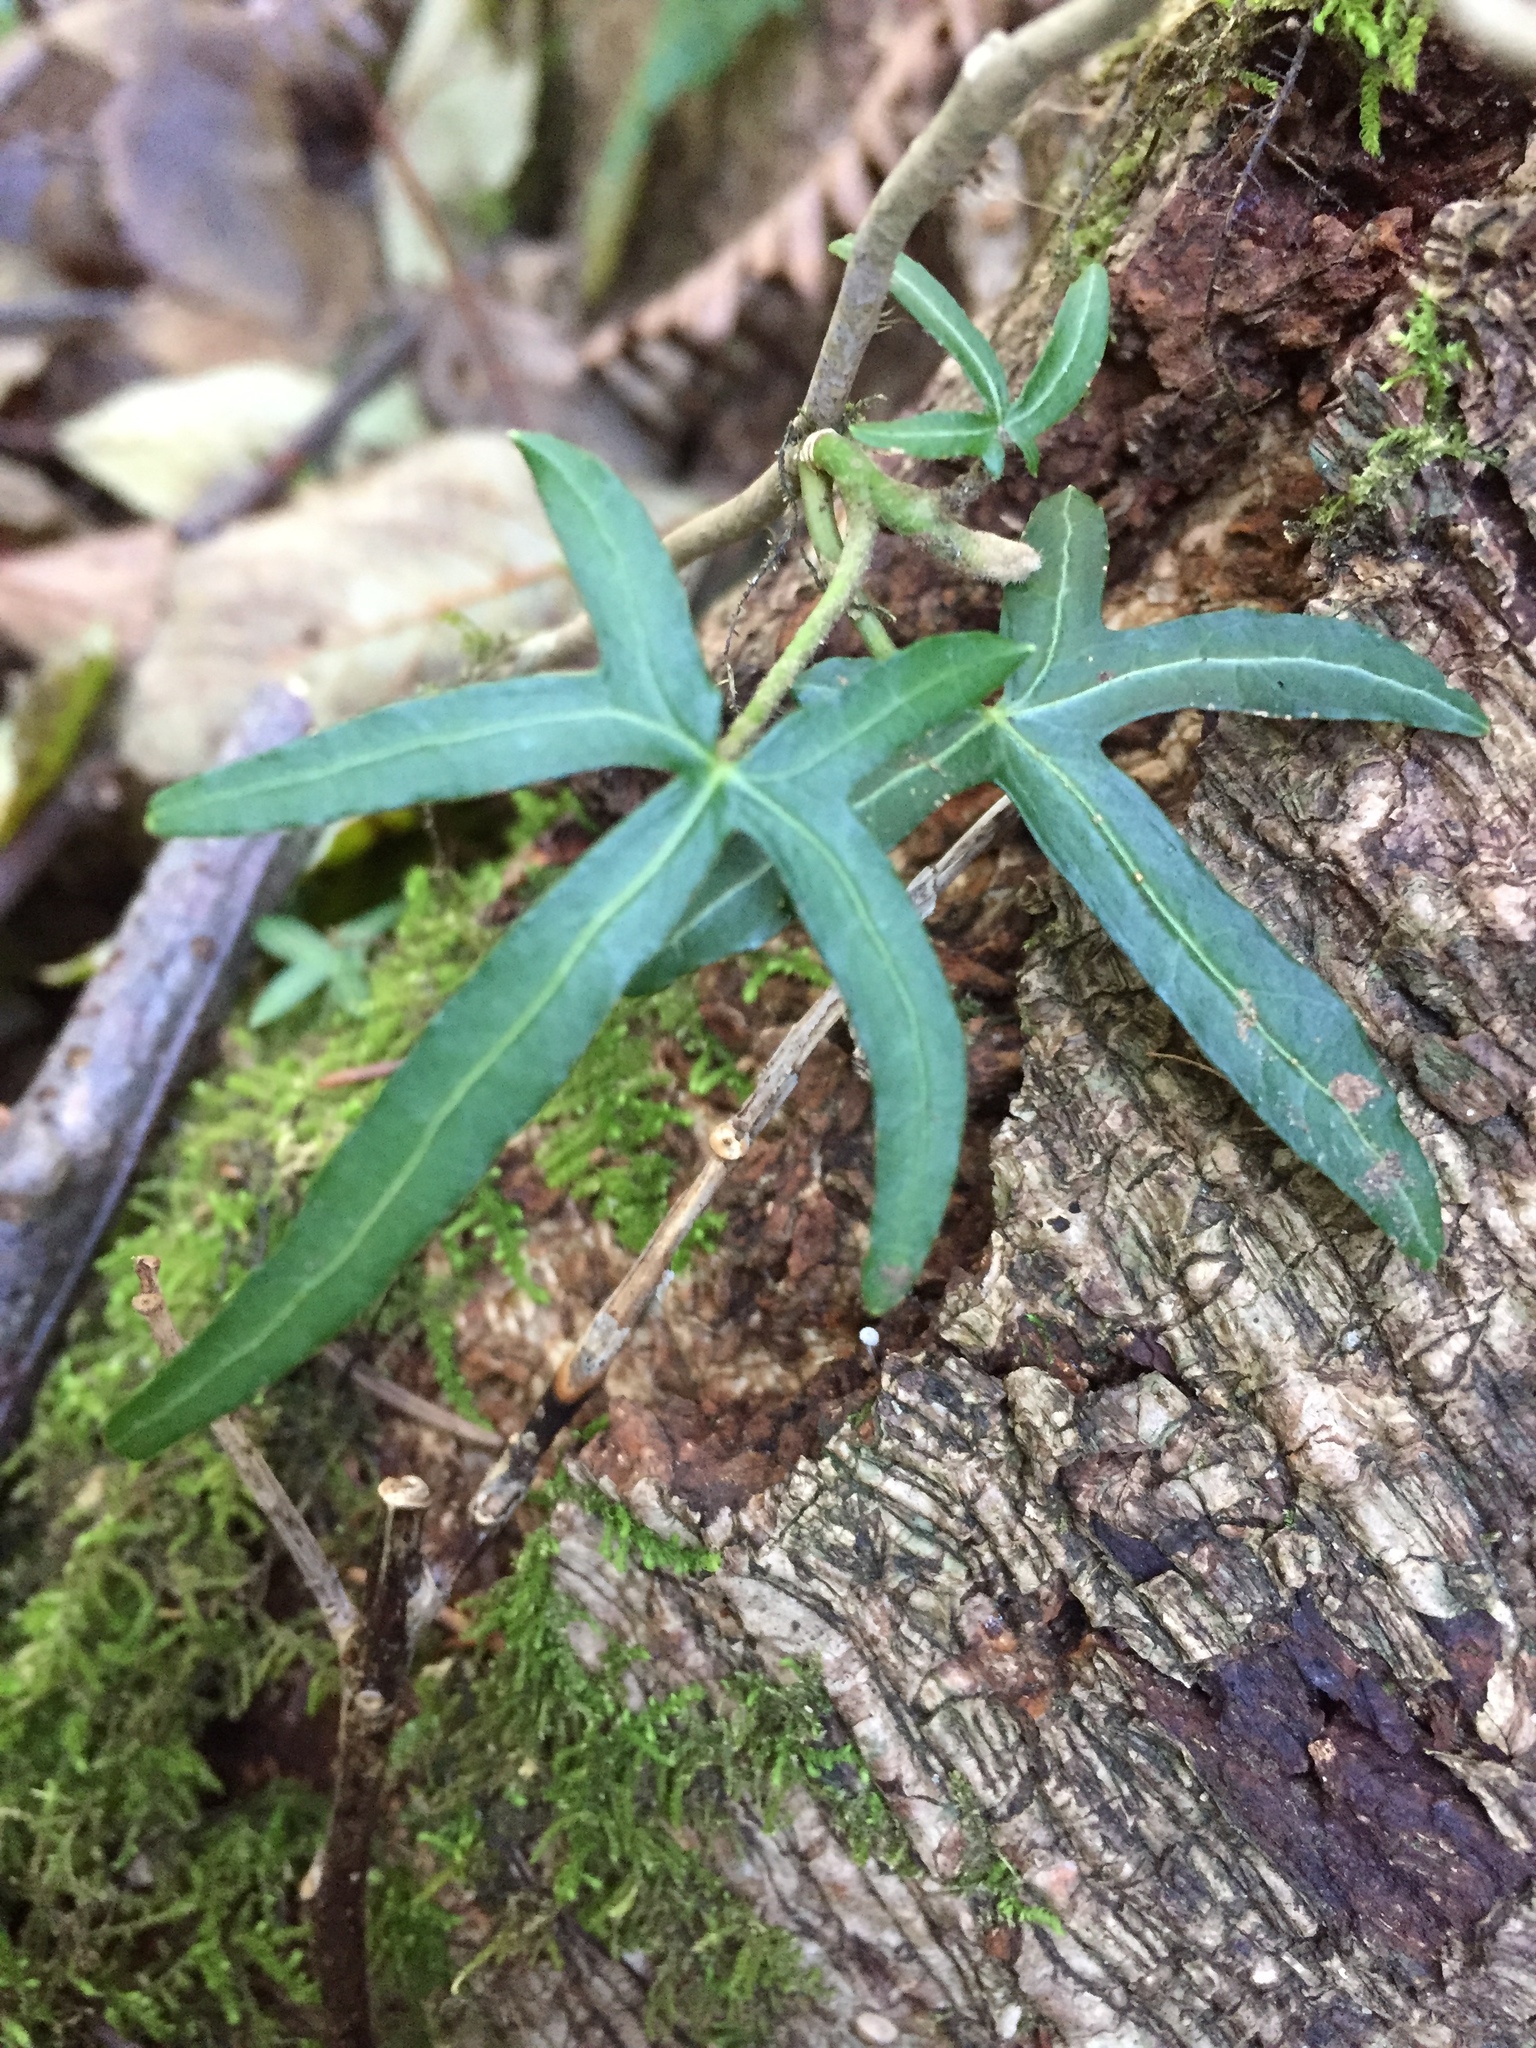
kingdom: Plantae
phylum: Tracheophyta
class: Magnoliopsida
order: Apiales
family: Araliaceae
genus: Hedera
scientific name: Hedera helix
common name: Ivy
